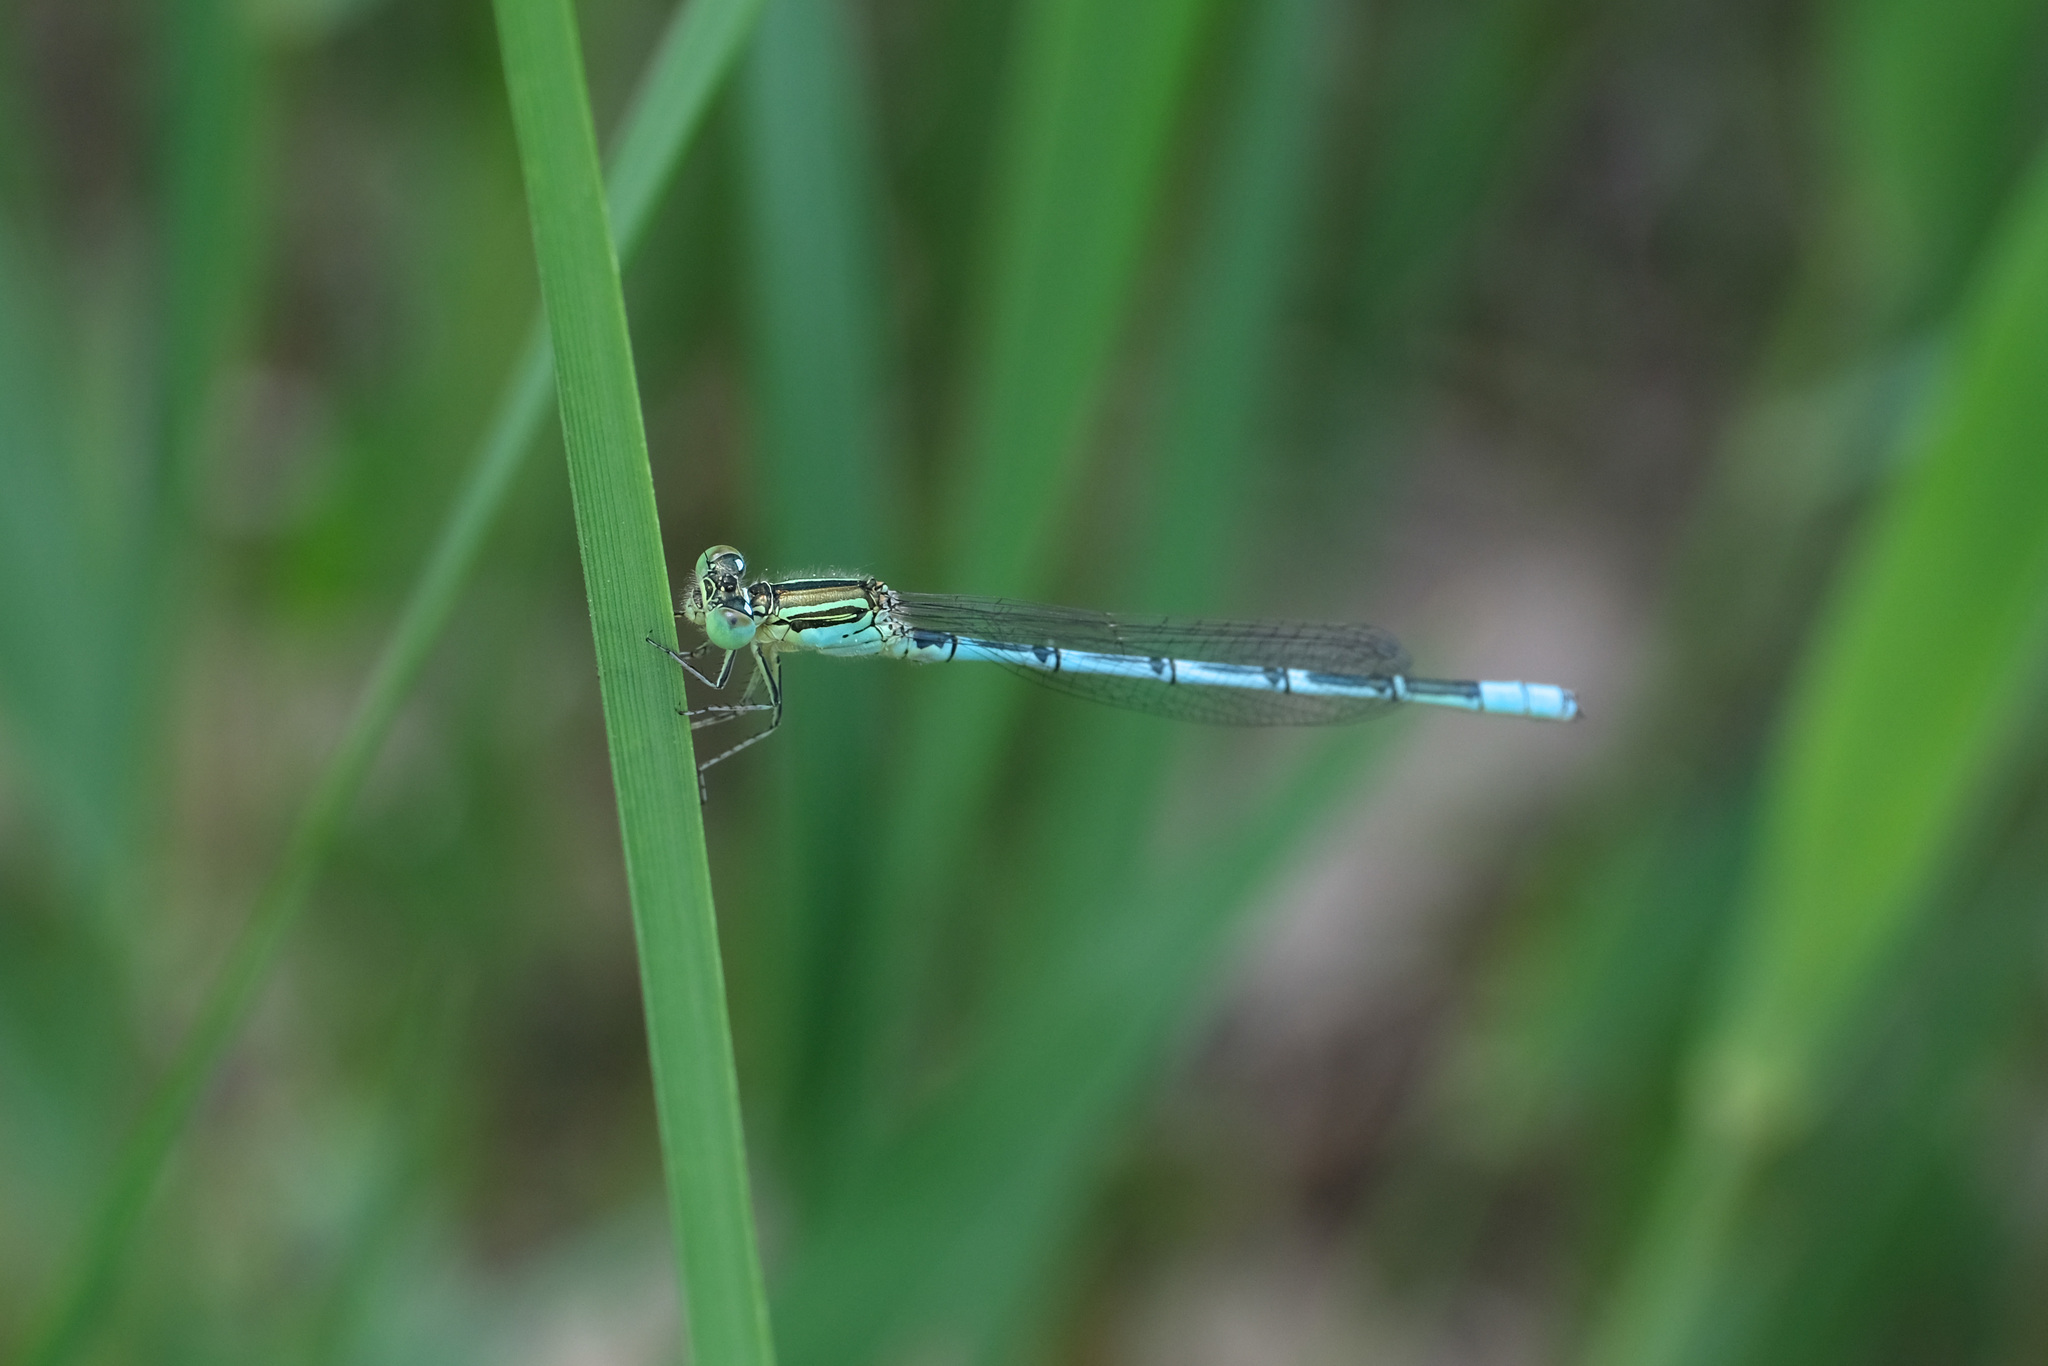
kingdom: Animalia
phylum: Arthropoda
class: Insecta
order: Odonata
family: Coenagrionidae
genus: Paracercion
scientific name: Paracercion hieroglyphicum
